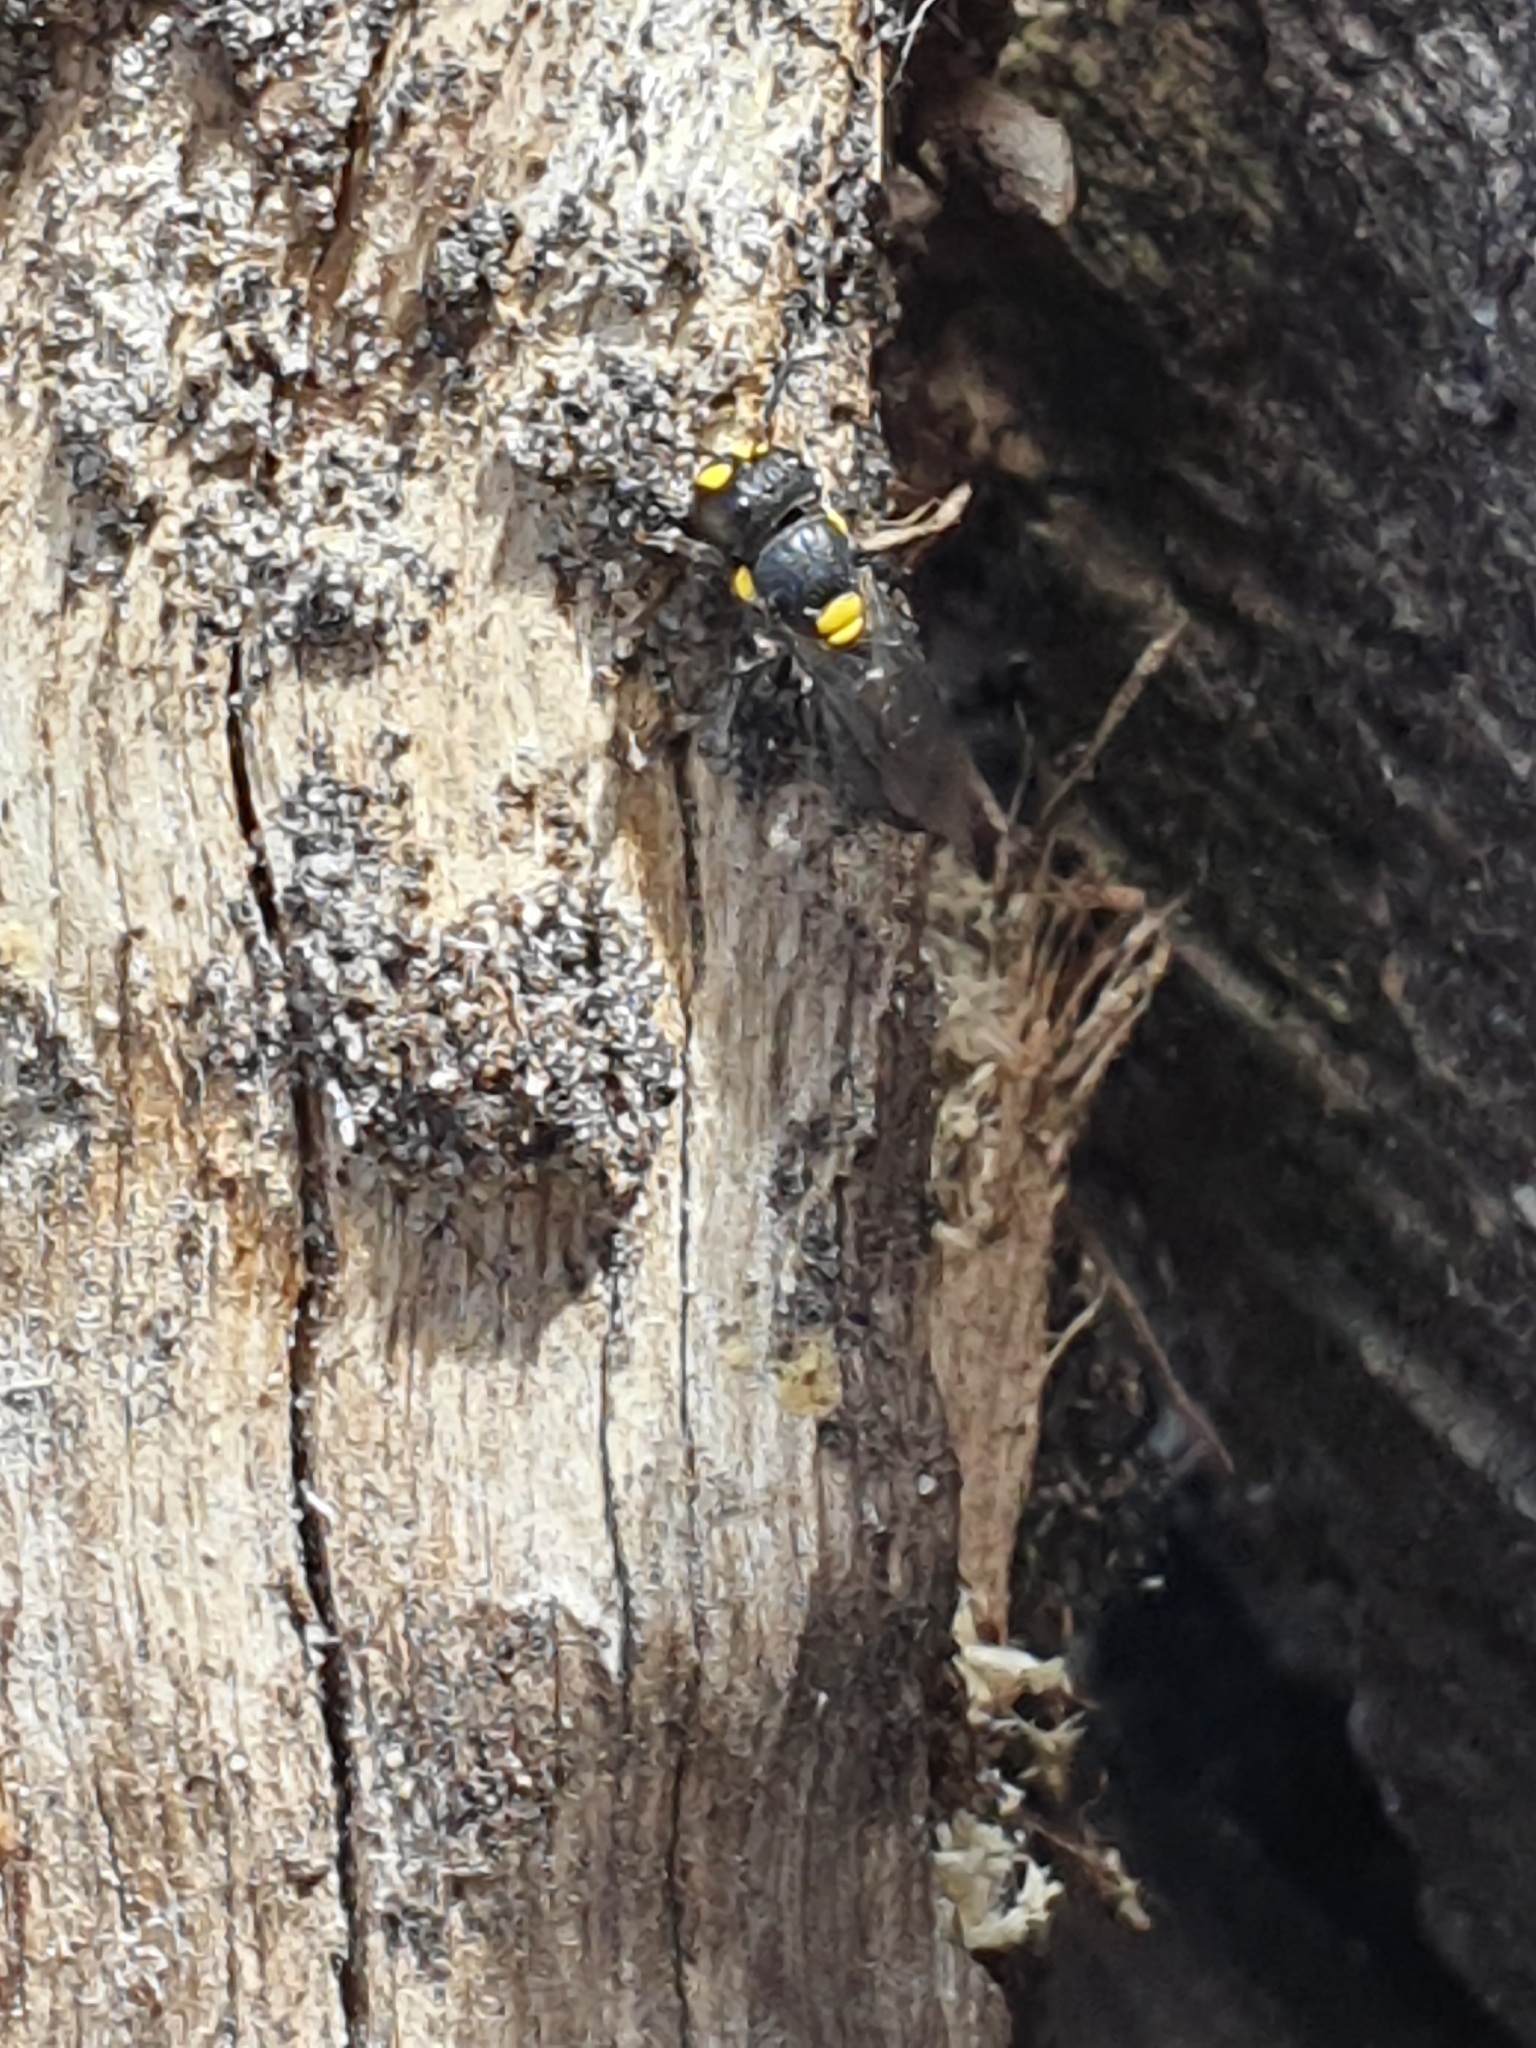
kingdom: Animalia
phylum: Arthropoda
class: Insecta
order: Hymenoptera
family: Colletidae
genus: Hylaeus
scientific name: Hylaeus obtusatus
